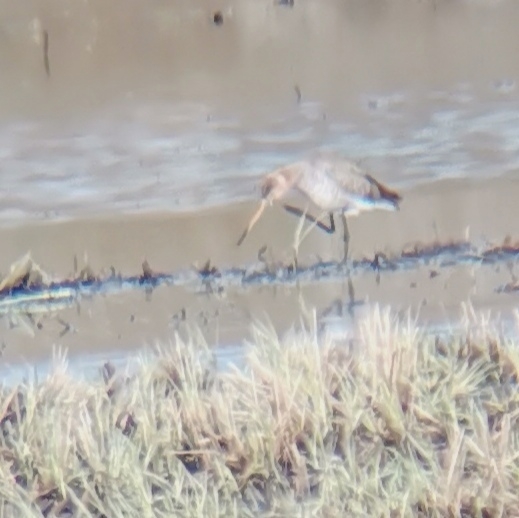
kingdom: Animalia
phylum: Chordata
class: Aves
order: Charadriiformes
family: Scolopacidae
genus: Limosa
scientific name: Limosa limosa
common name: Black-tailed godwit
